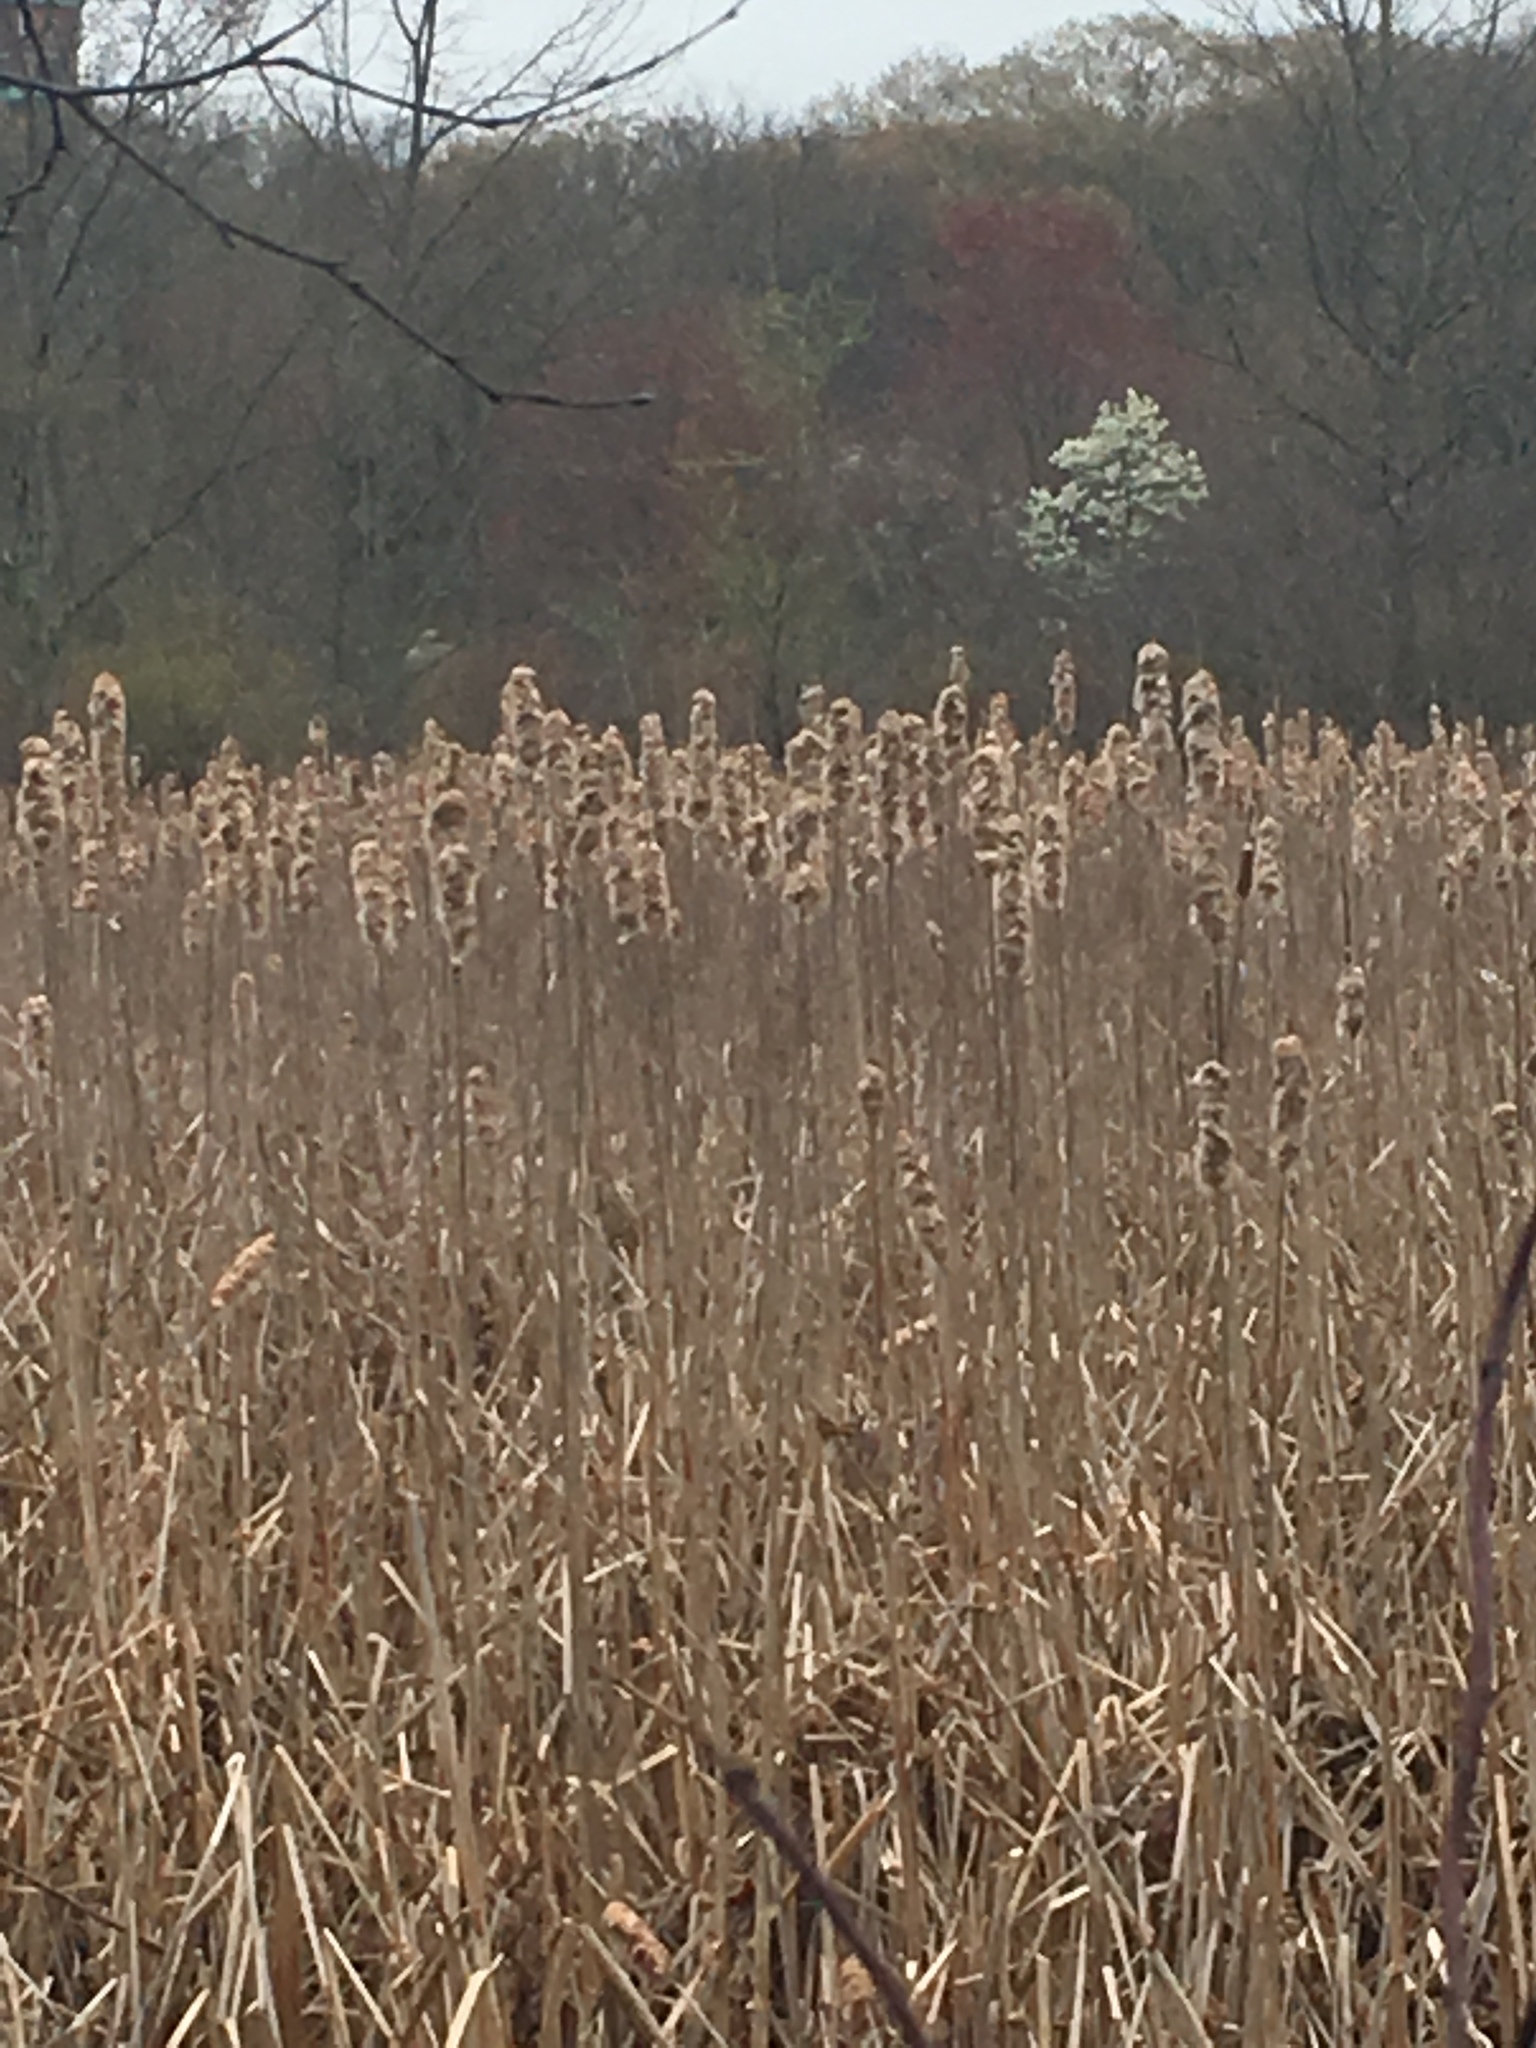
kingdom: Plantae
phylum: Tracheophyta
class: Liliopsida
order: Poales
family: Typhaceae
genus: Typha
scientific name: Typha latifolia
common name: Broadleaf cattail
